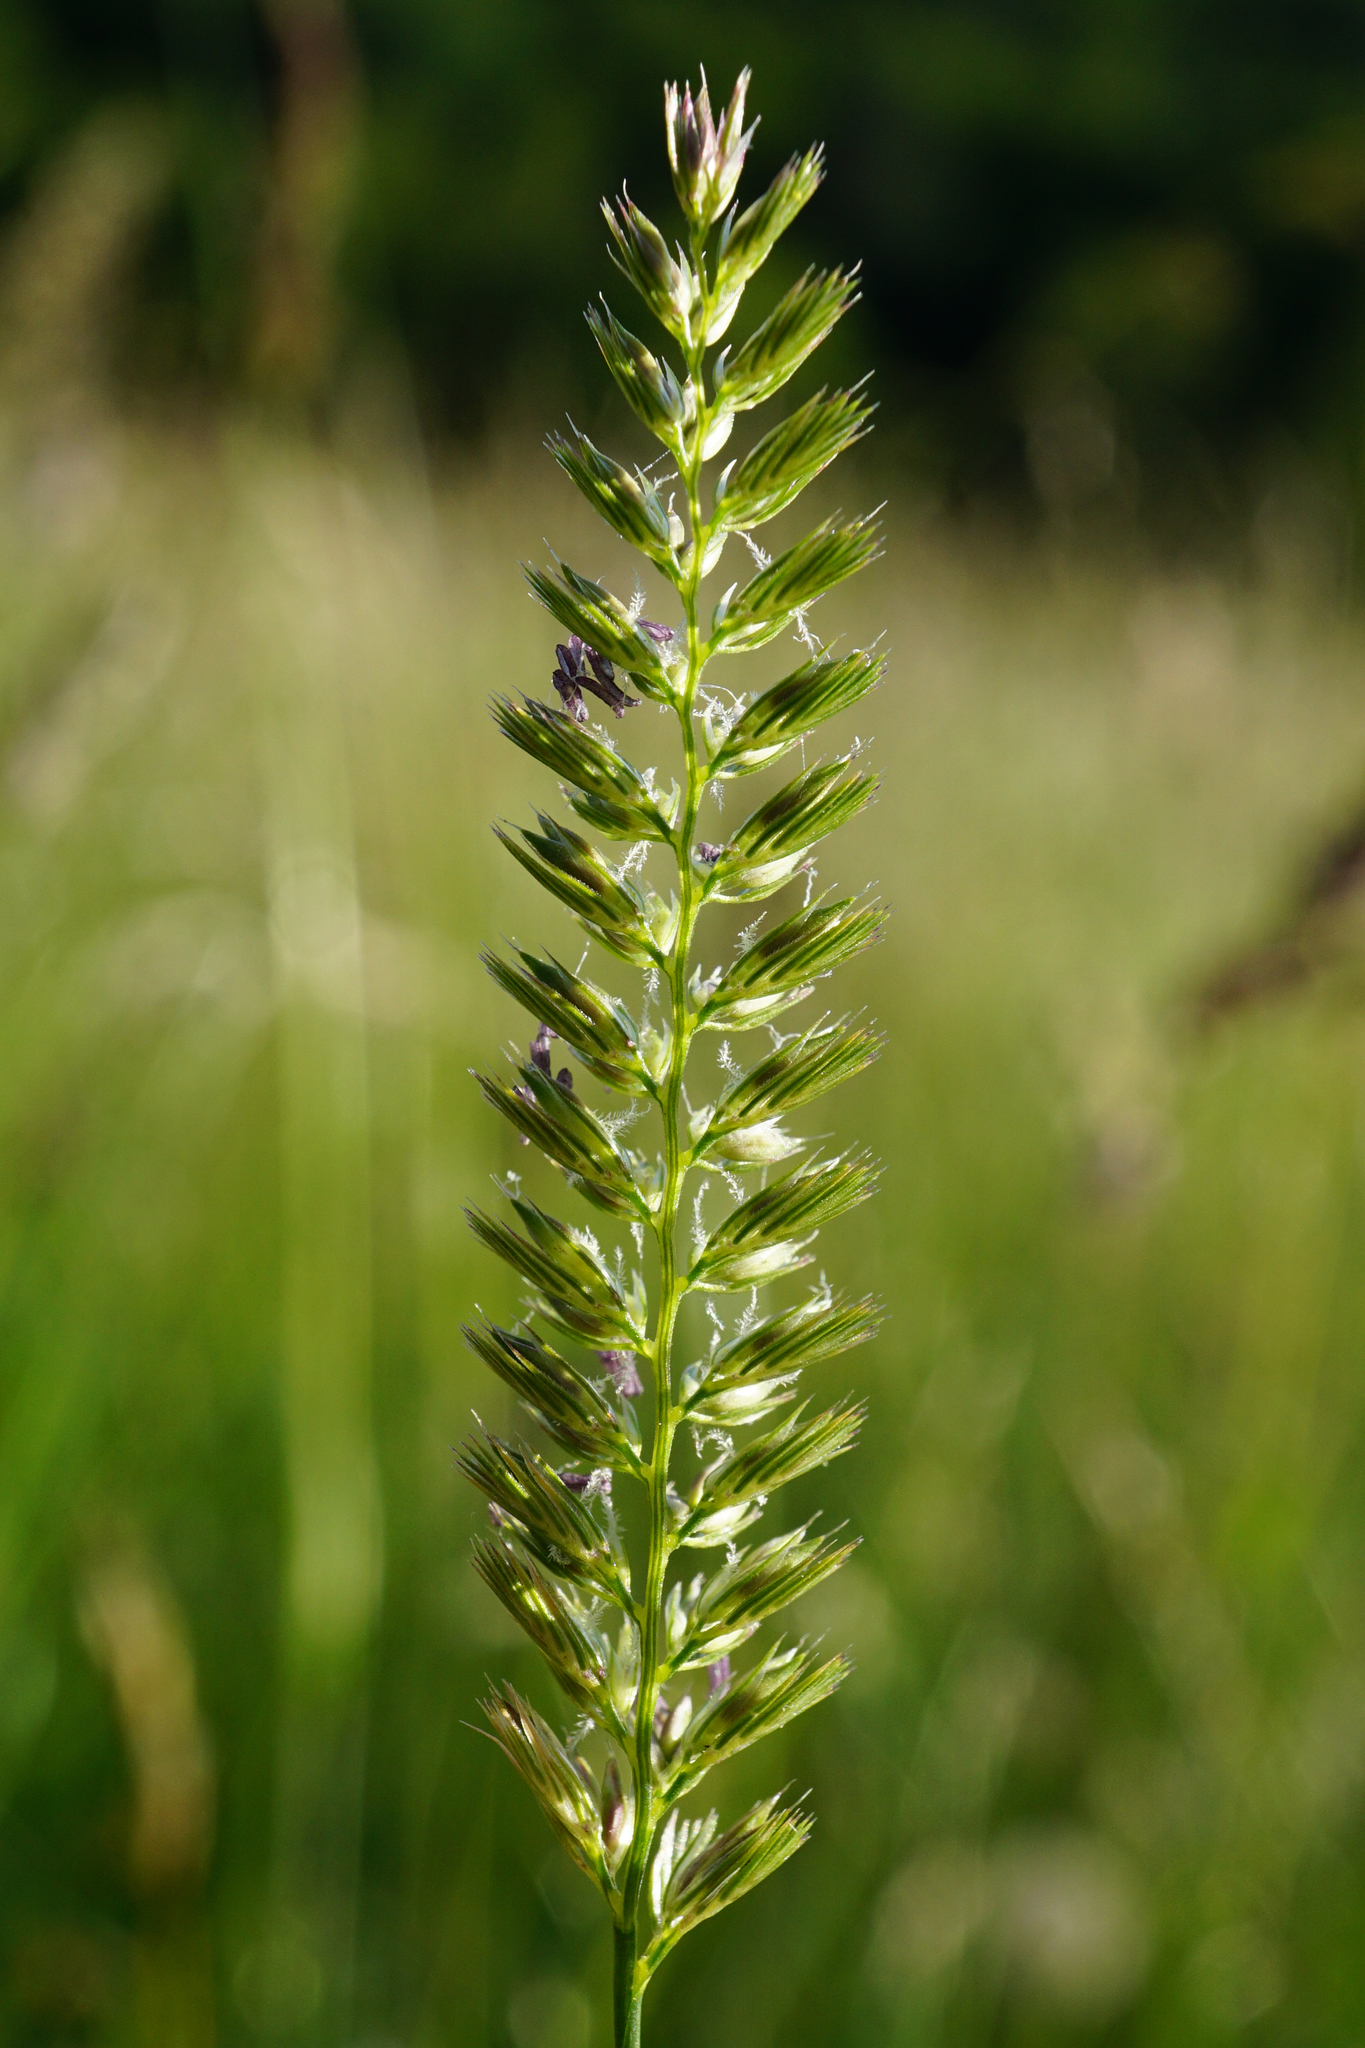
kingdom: Plantae
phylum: Tracheophyta
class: Liliopsida
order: Poales
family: Poaceae
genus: Cynosurus
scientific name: Cynosurus cristatus
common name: Crested dog's-tail
